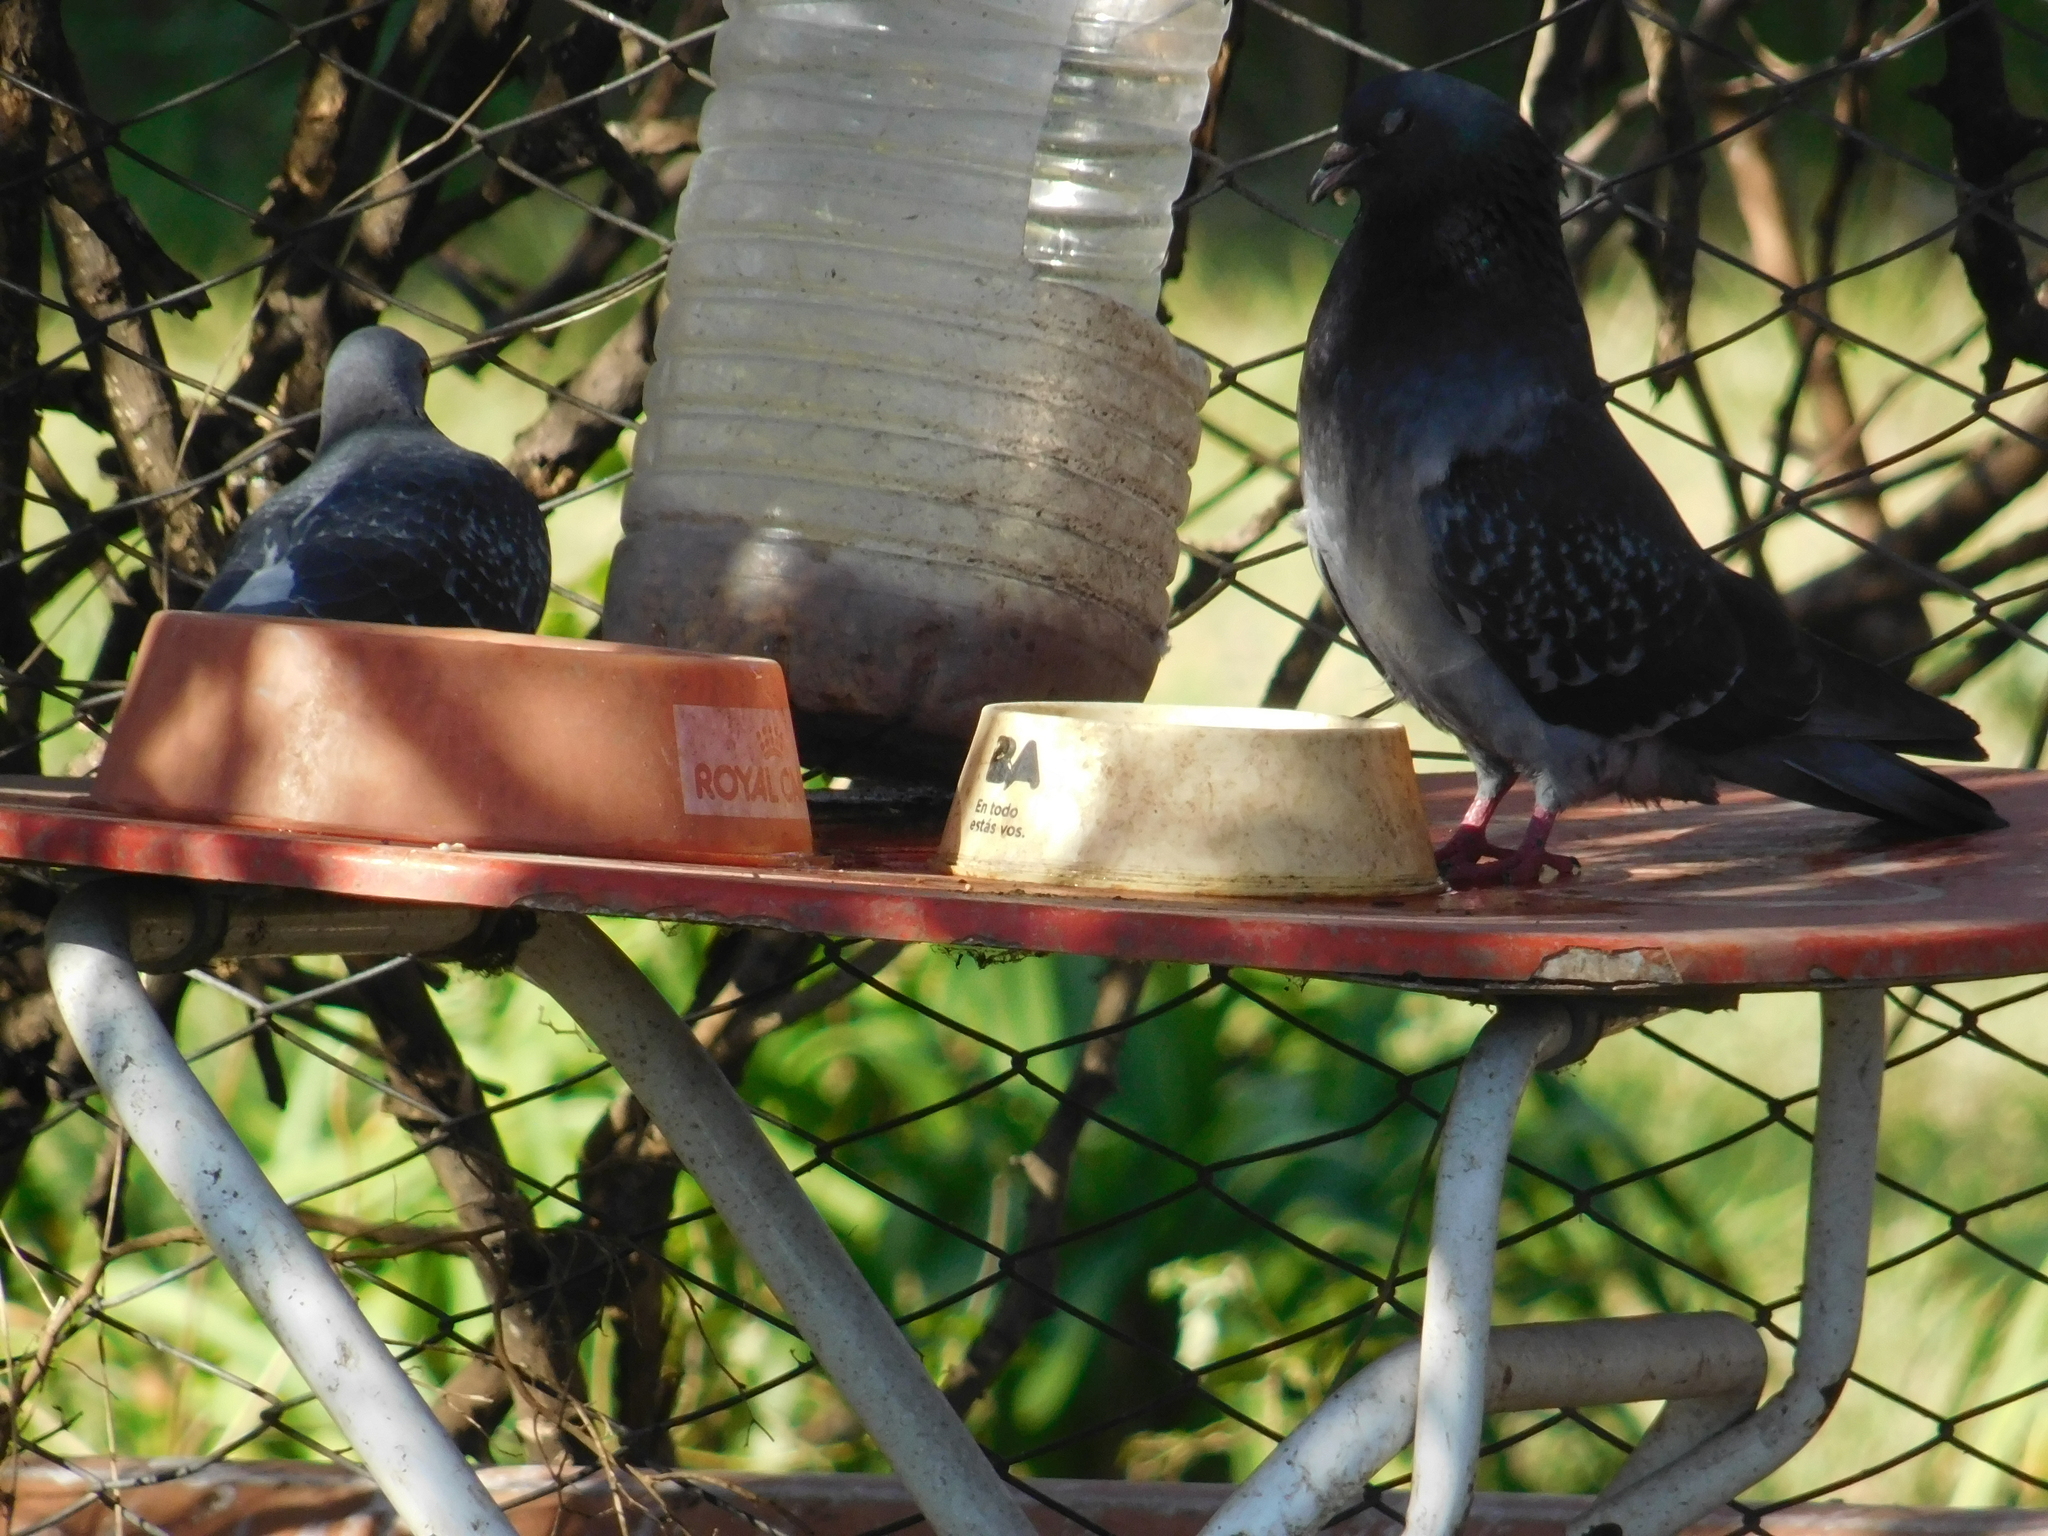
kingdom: Animalia
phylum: Chordata
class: Aves
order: Columbiformes
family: Columbidae
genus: Columba
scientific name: Columba livia
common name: Rock pigeon
